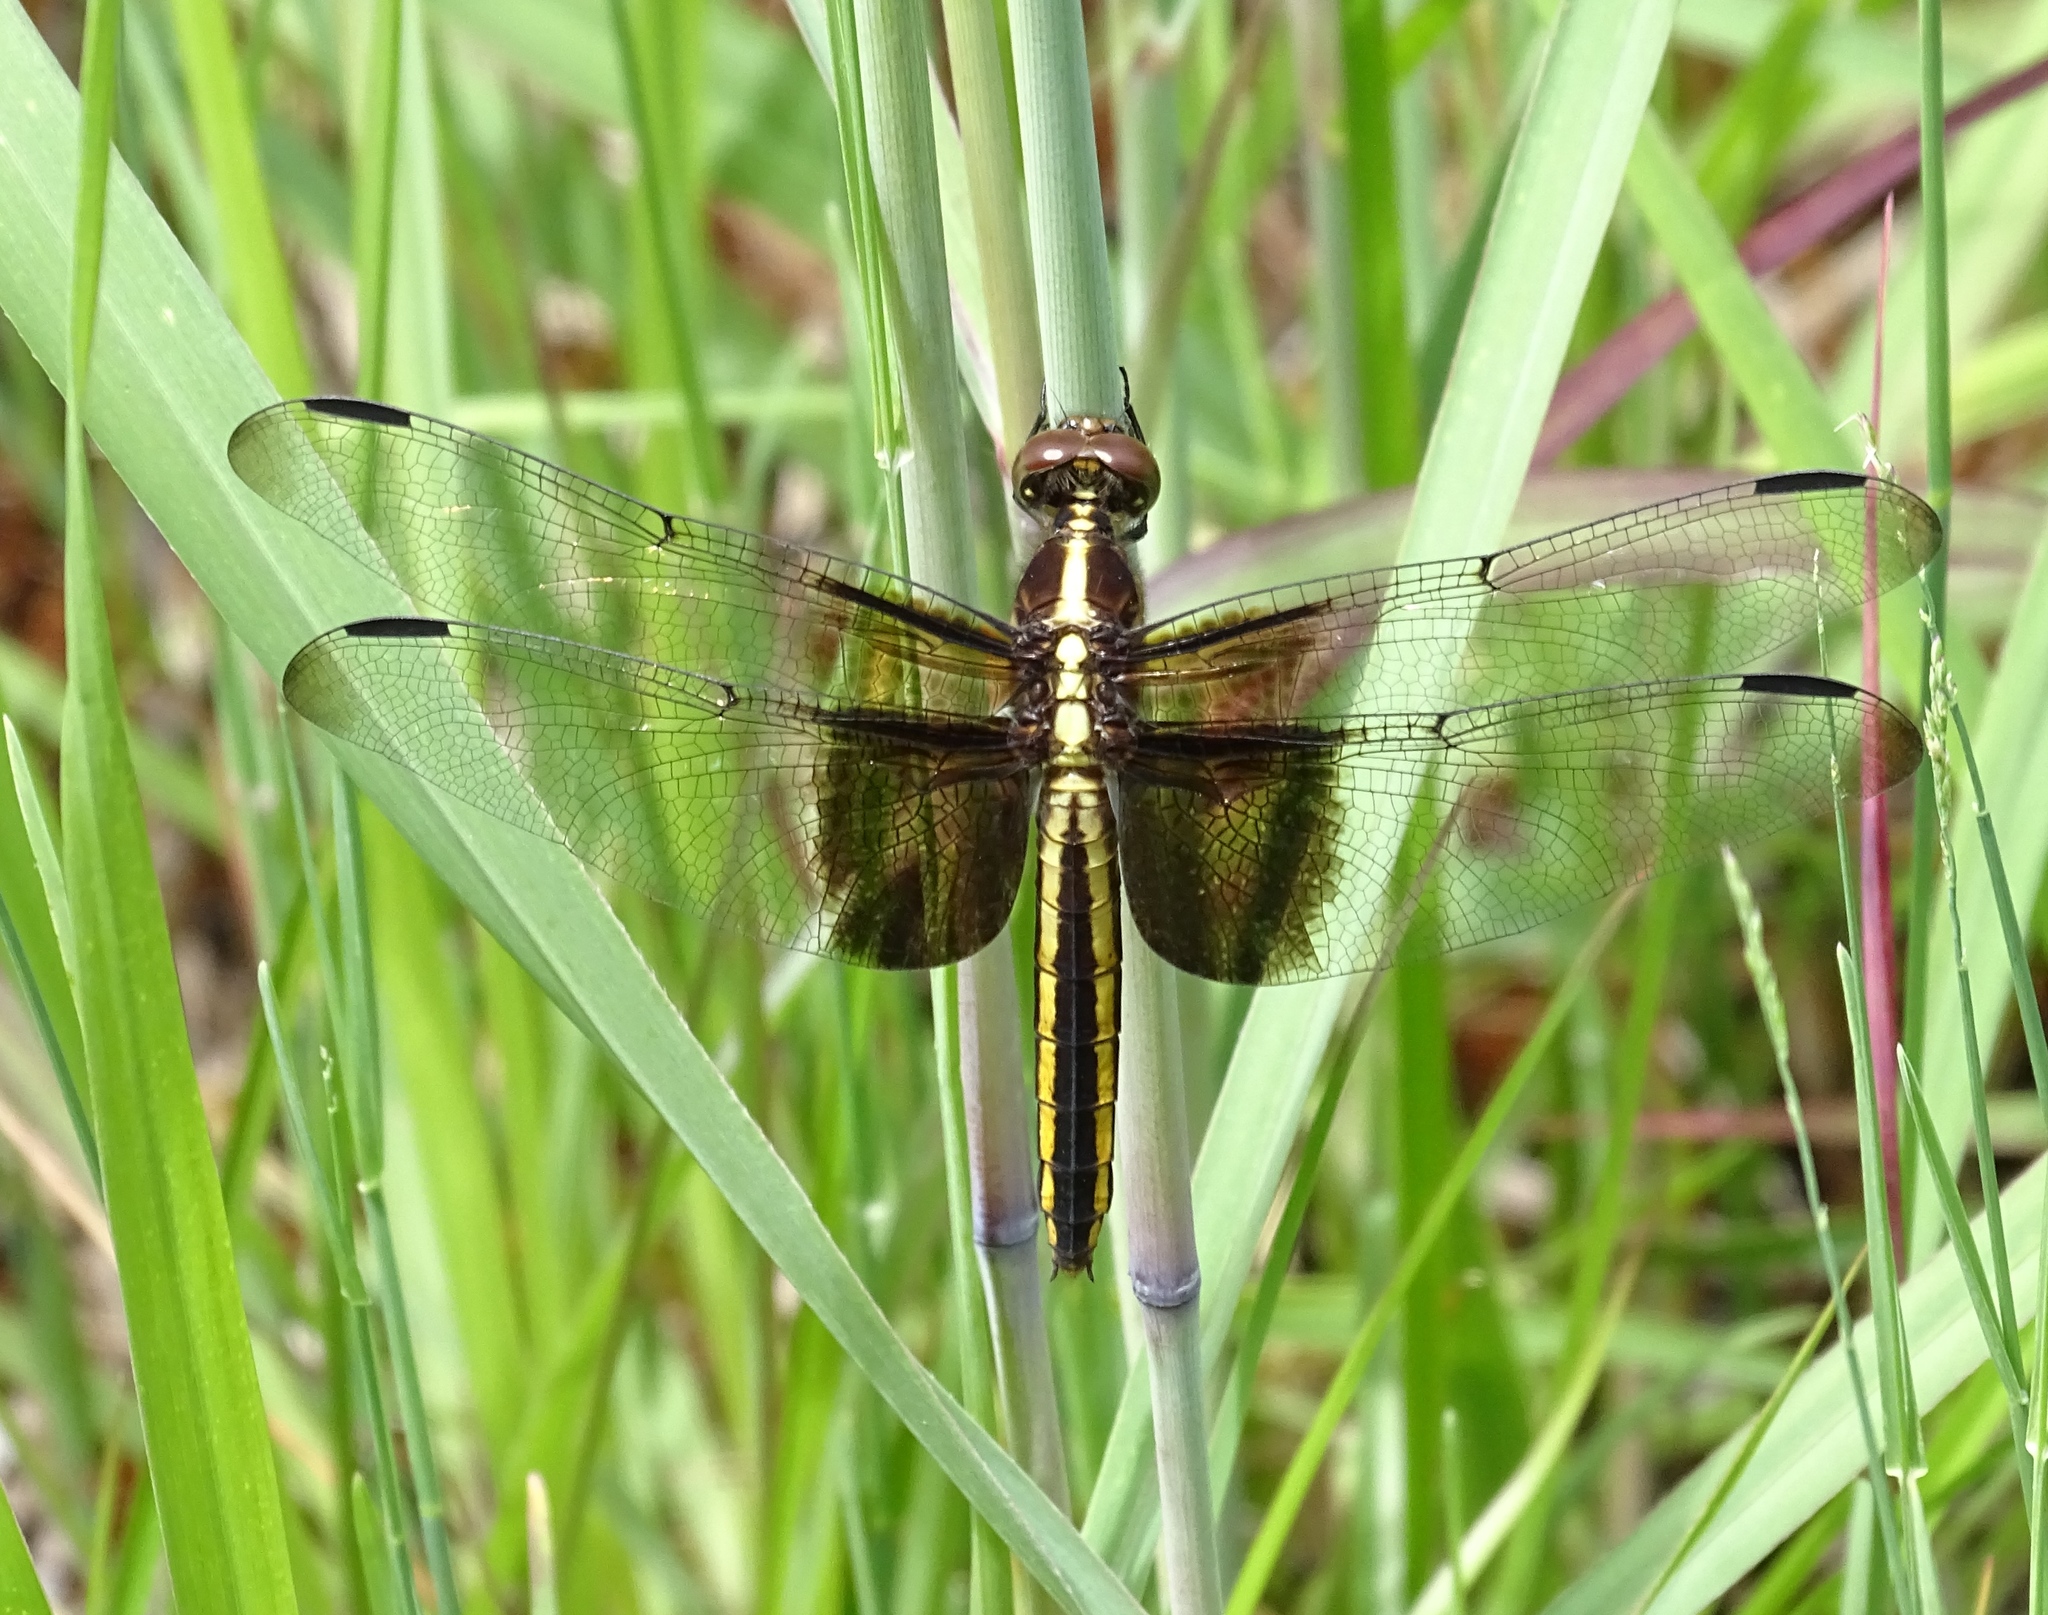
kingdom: Animalia
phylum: Arthropoda
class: Insecta
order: Odonata
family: Libellulidae
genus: Libellula
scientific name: Libellula luctuosa
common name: Widow skimmer
